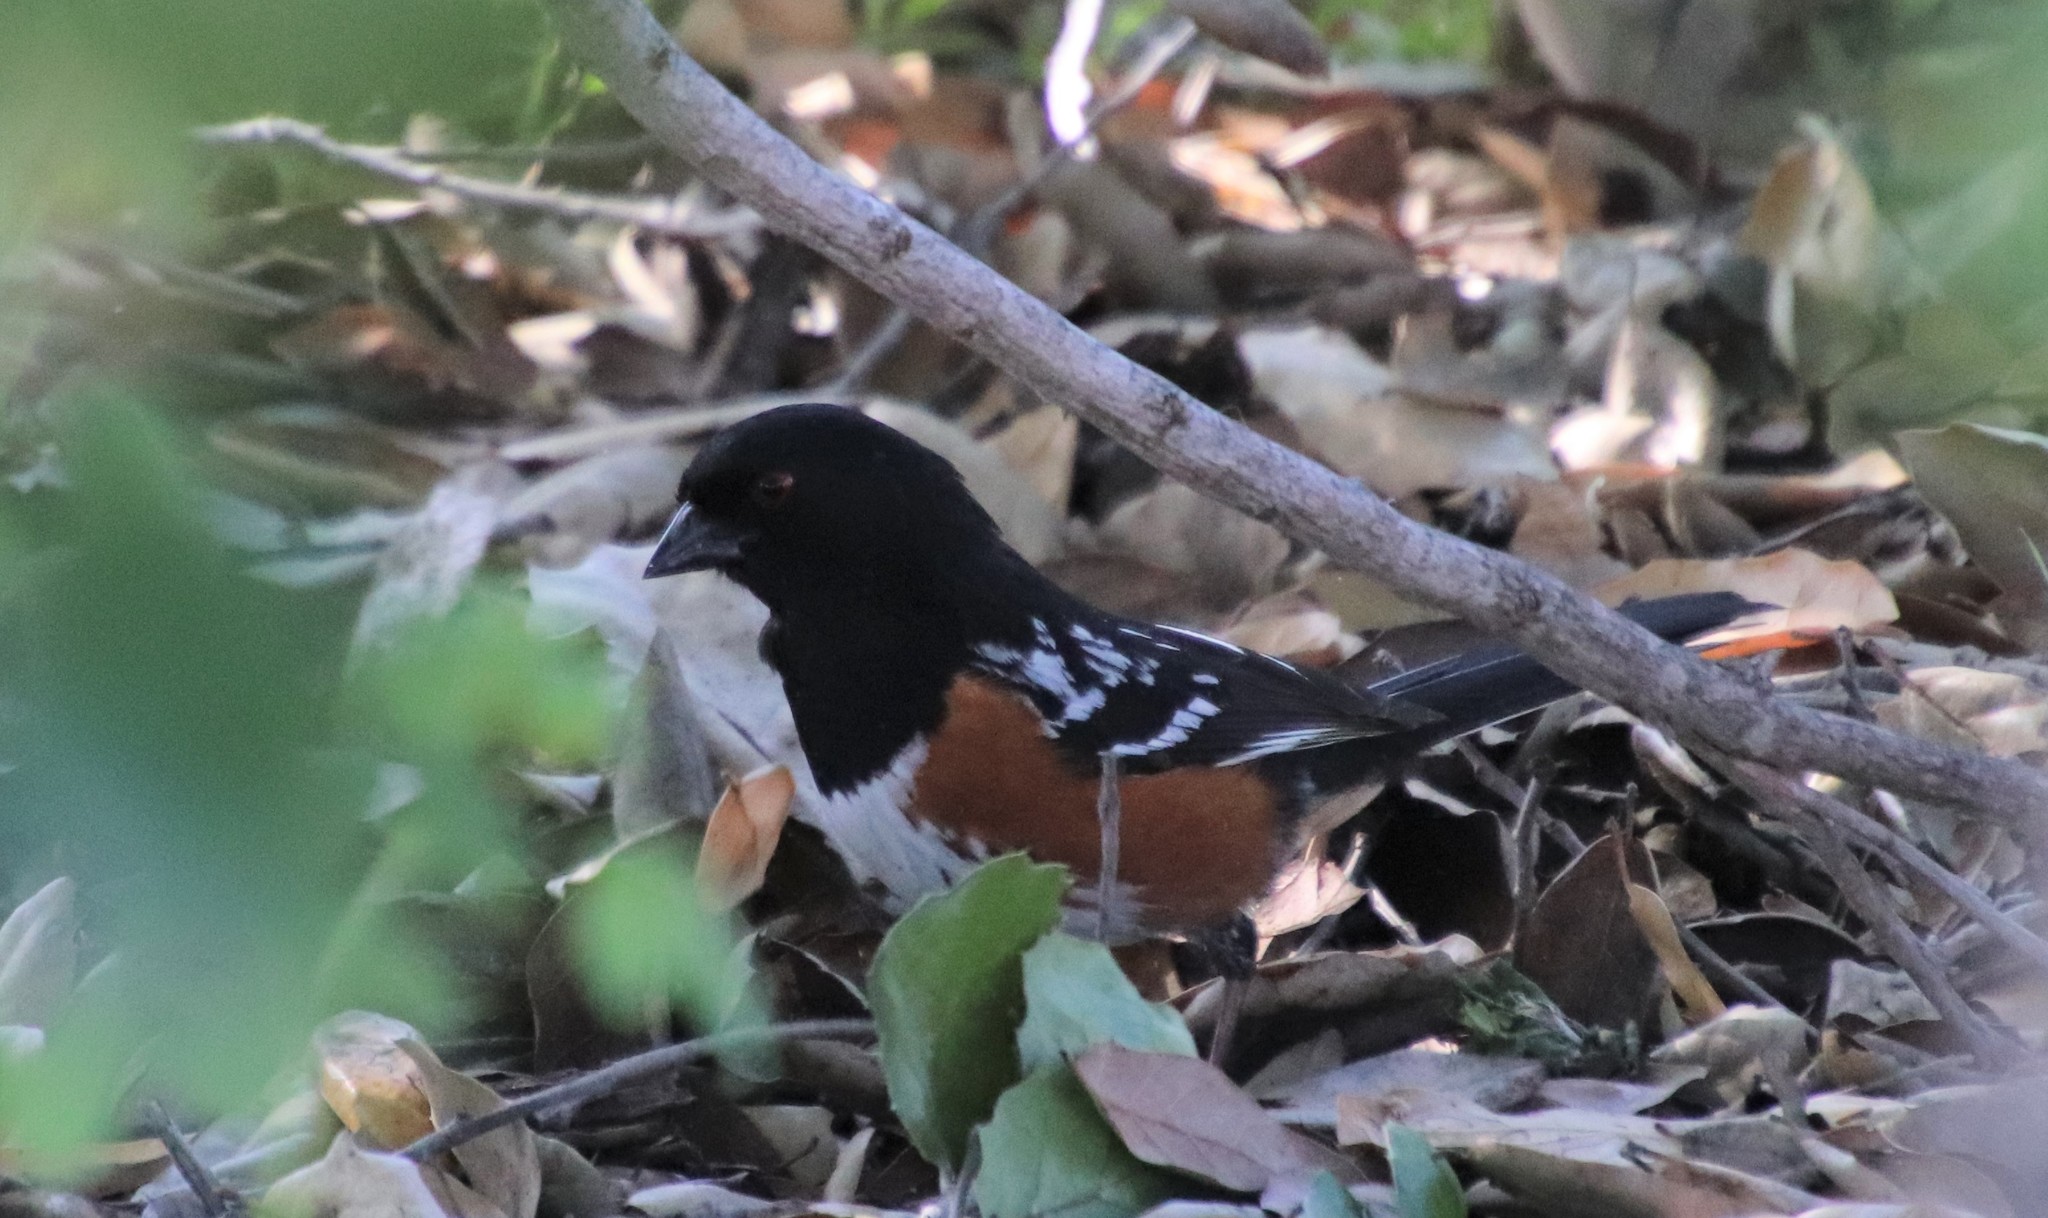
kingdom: Animalia
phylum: Chordata
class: Aves
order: Passeriformes
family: Passerellidae
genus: Pipilo
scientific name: Pipilo maculatus
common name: Spotted towhee
